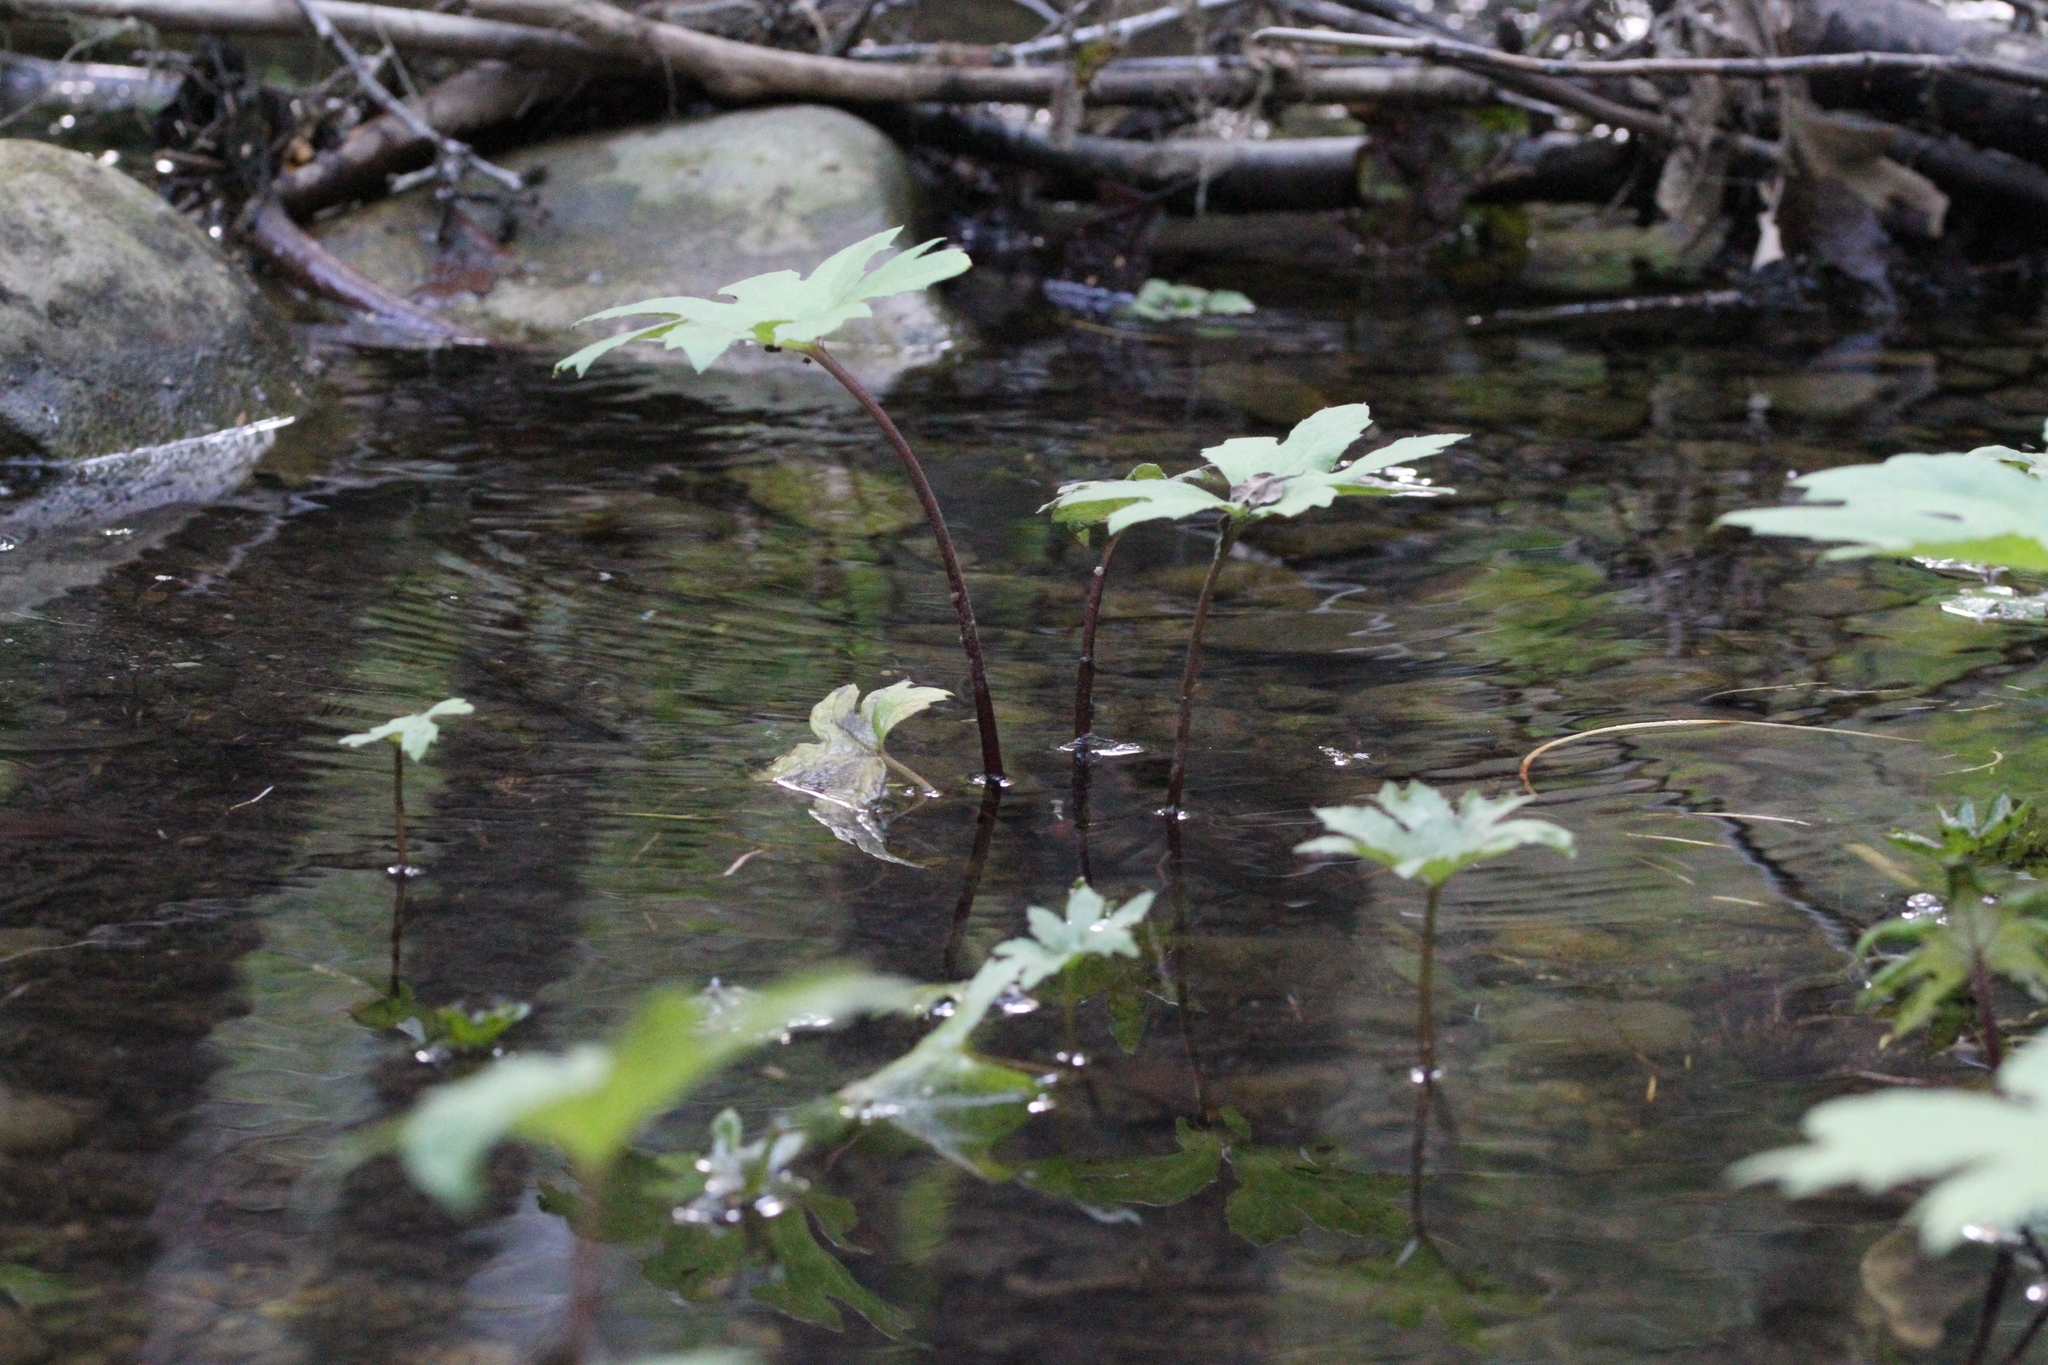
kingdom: Plantae
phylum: Tracheophyta
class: Magnoliopsida
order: Asterales
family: Asteraceae
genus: Petasites
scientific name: Petasites frigidus
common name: Arctic butterbur
